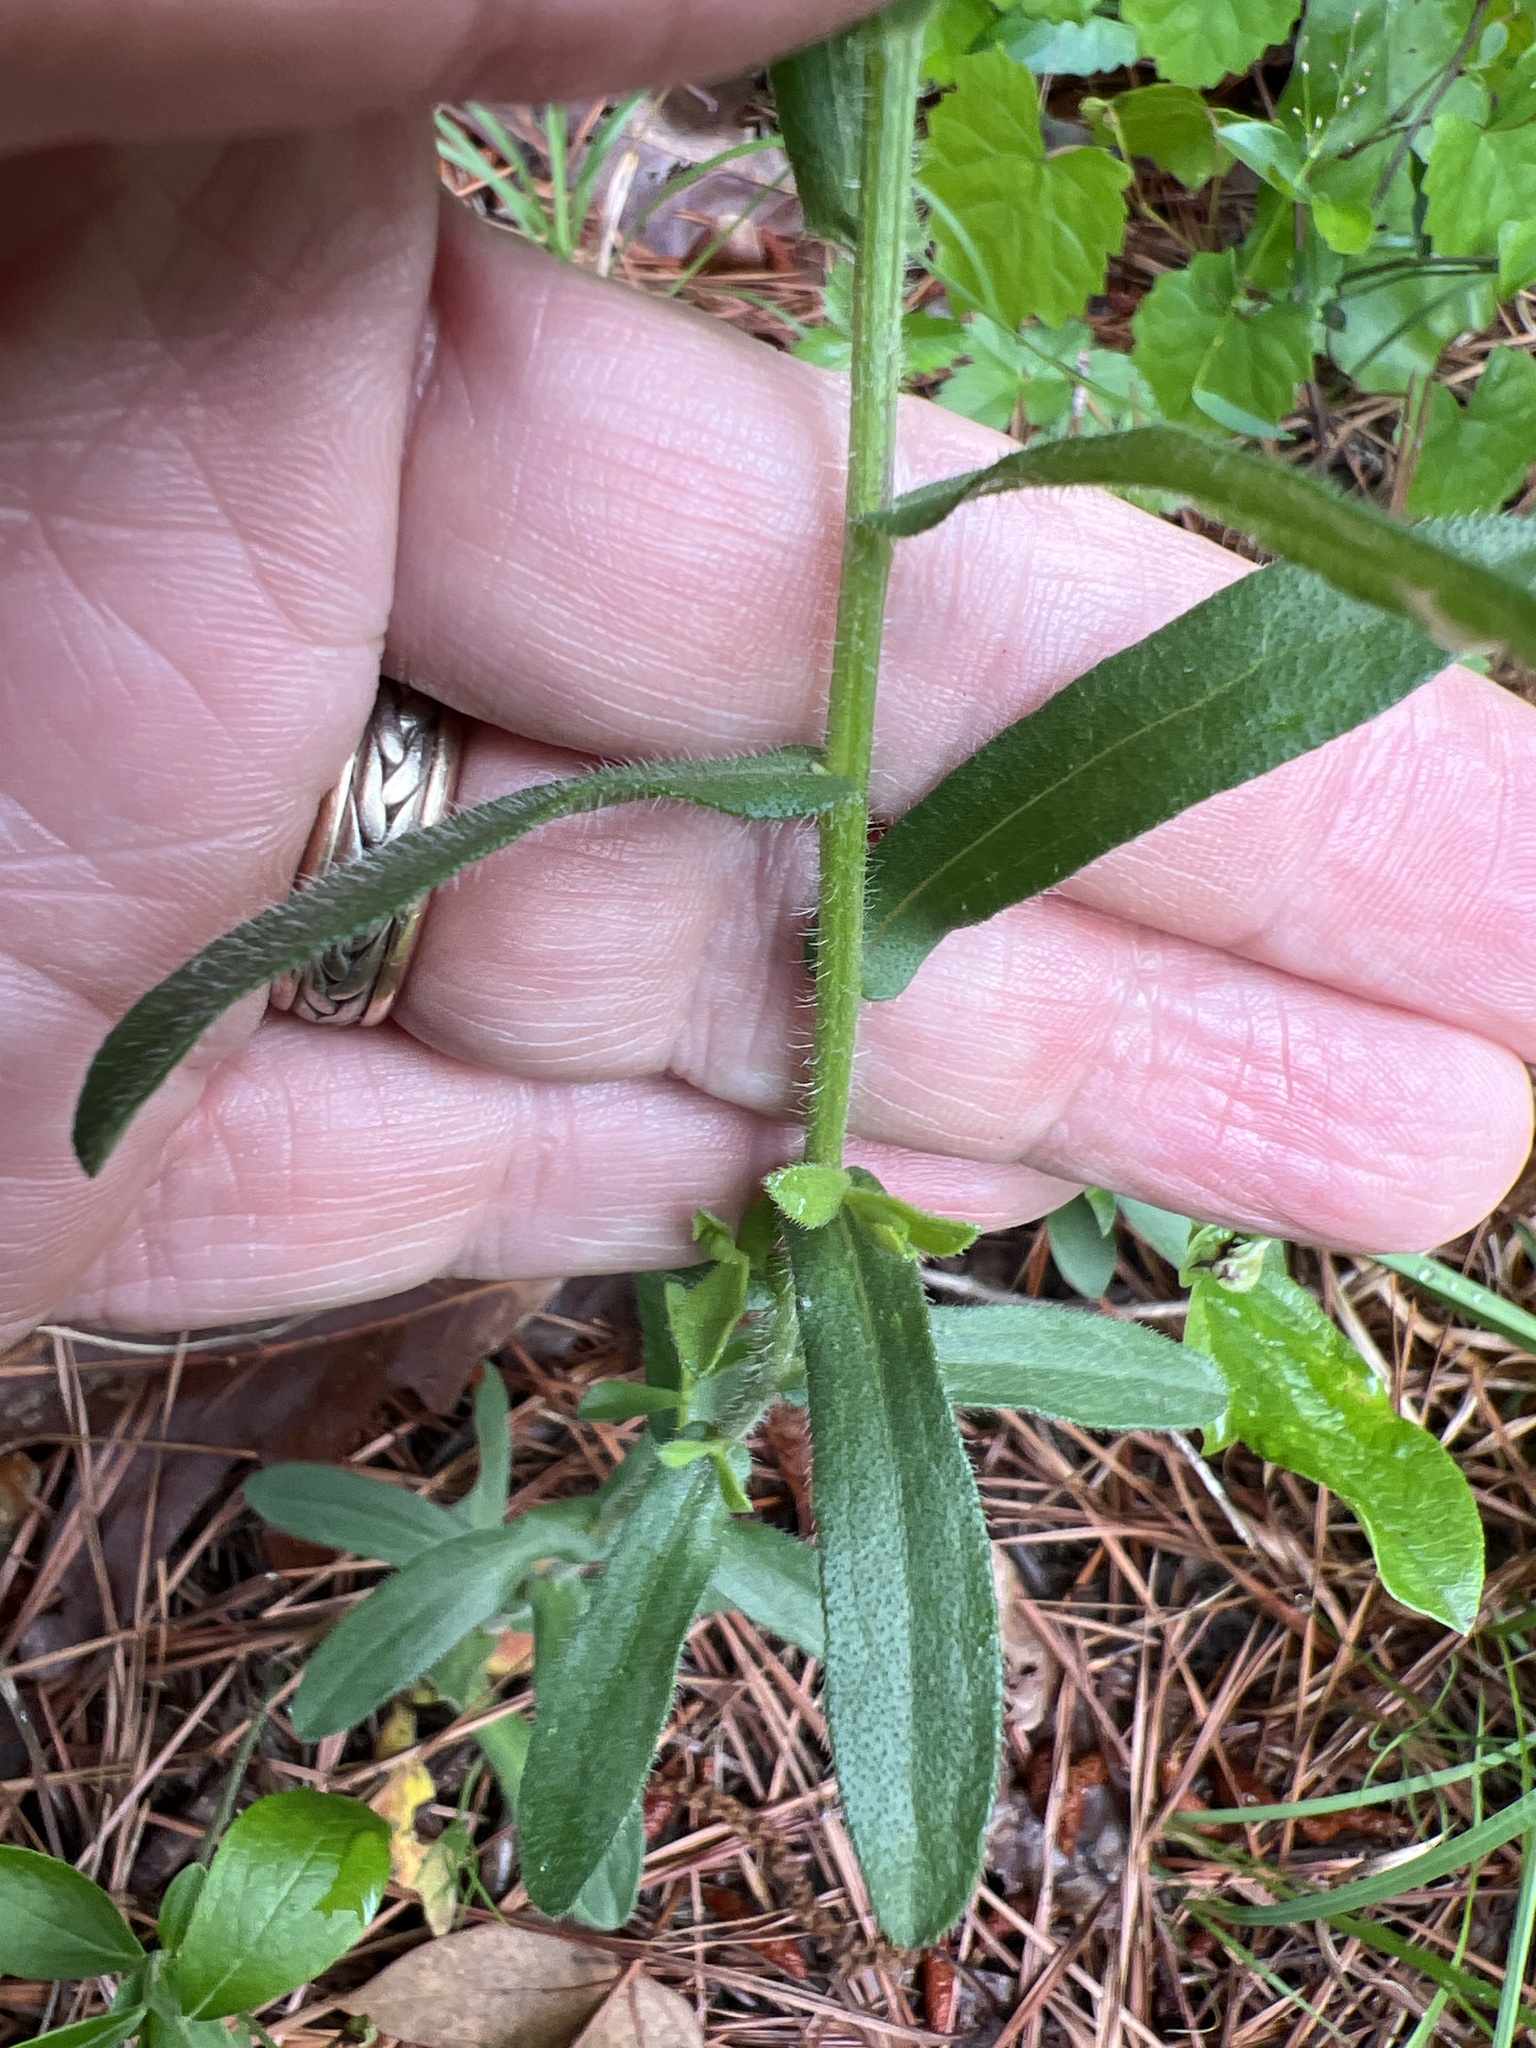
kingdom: Plantae
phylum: Tracheophyta
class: Magnoliopsida
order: Asterales
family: Asteraceae
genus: Symphyotrichum
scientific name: Symphyotrichum grandiflorum
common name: Big-head aster
